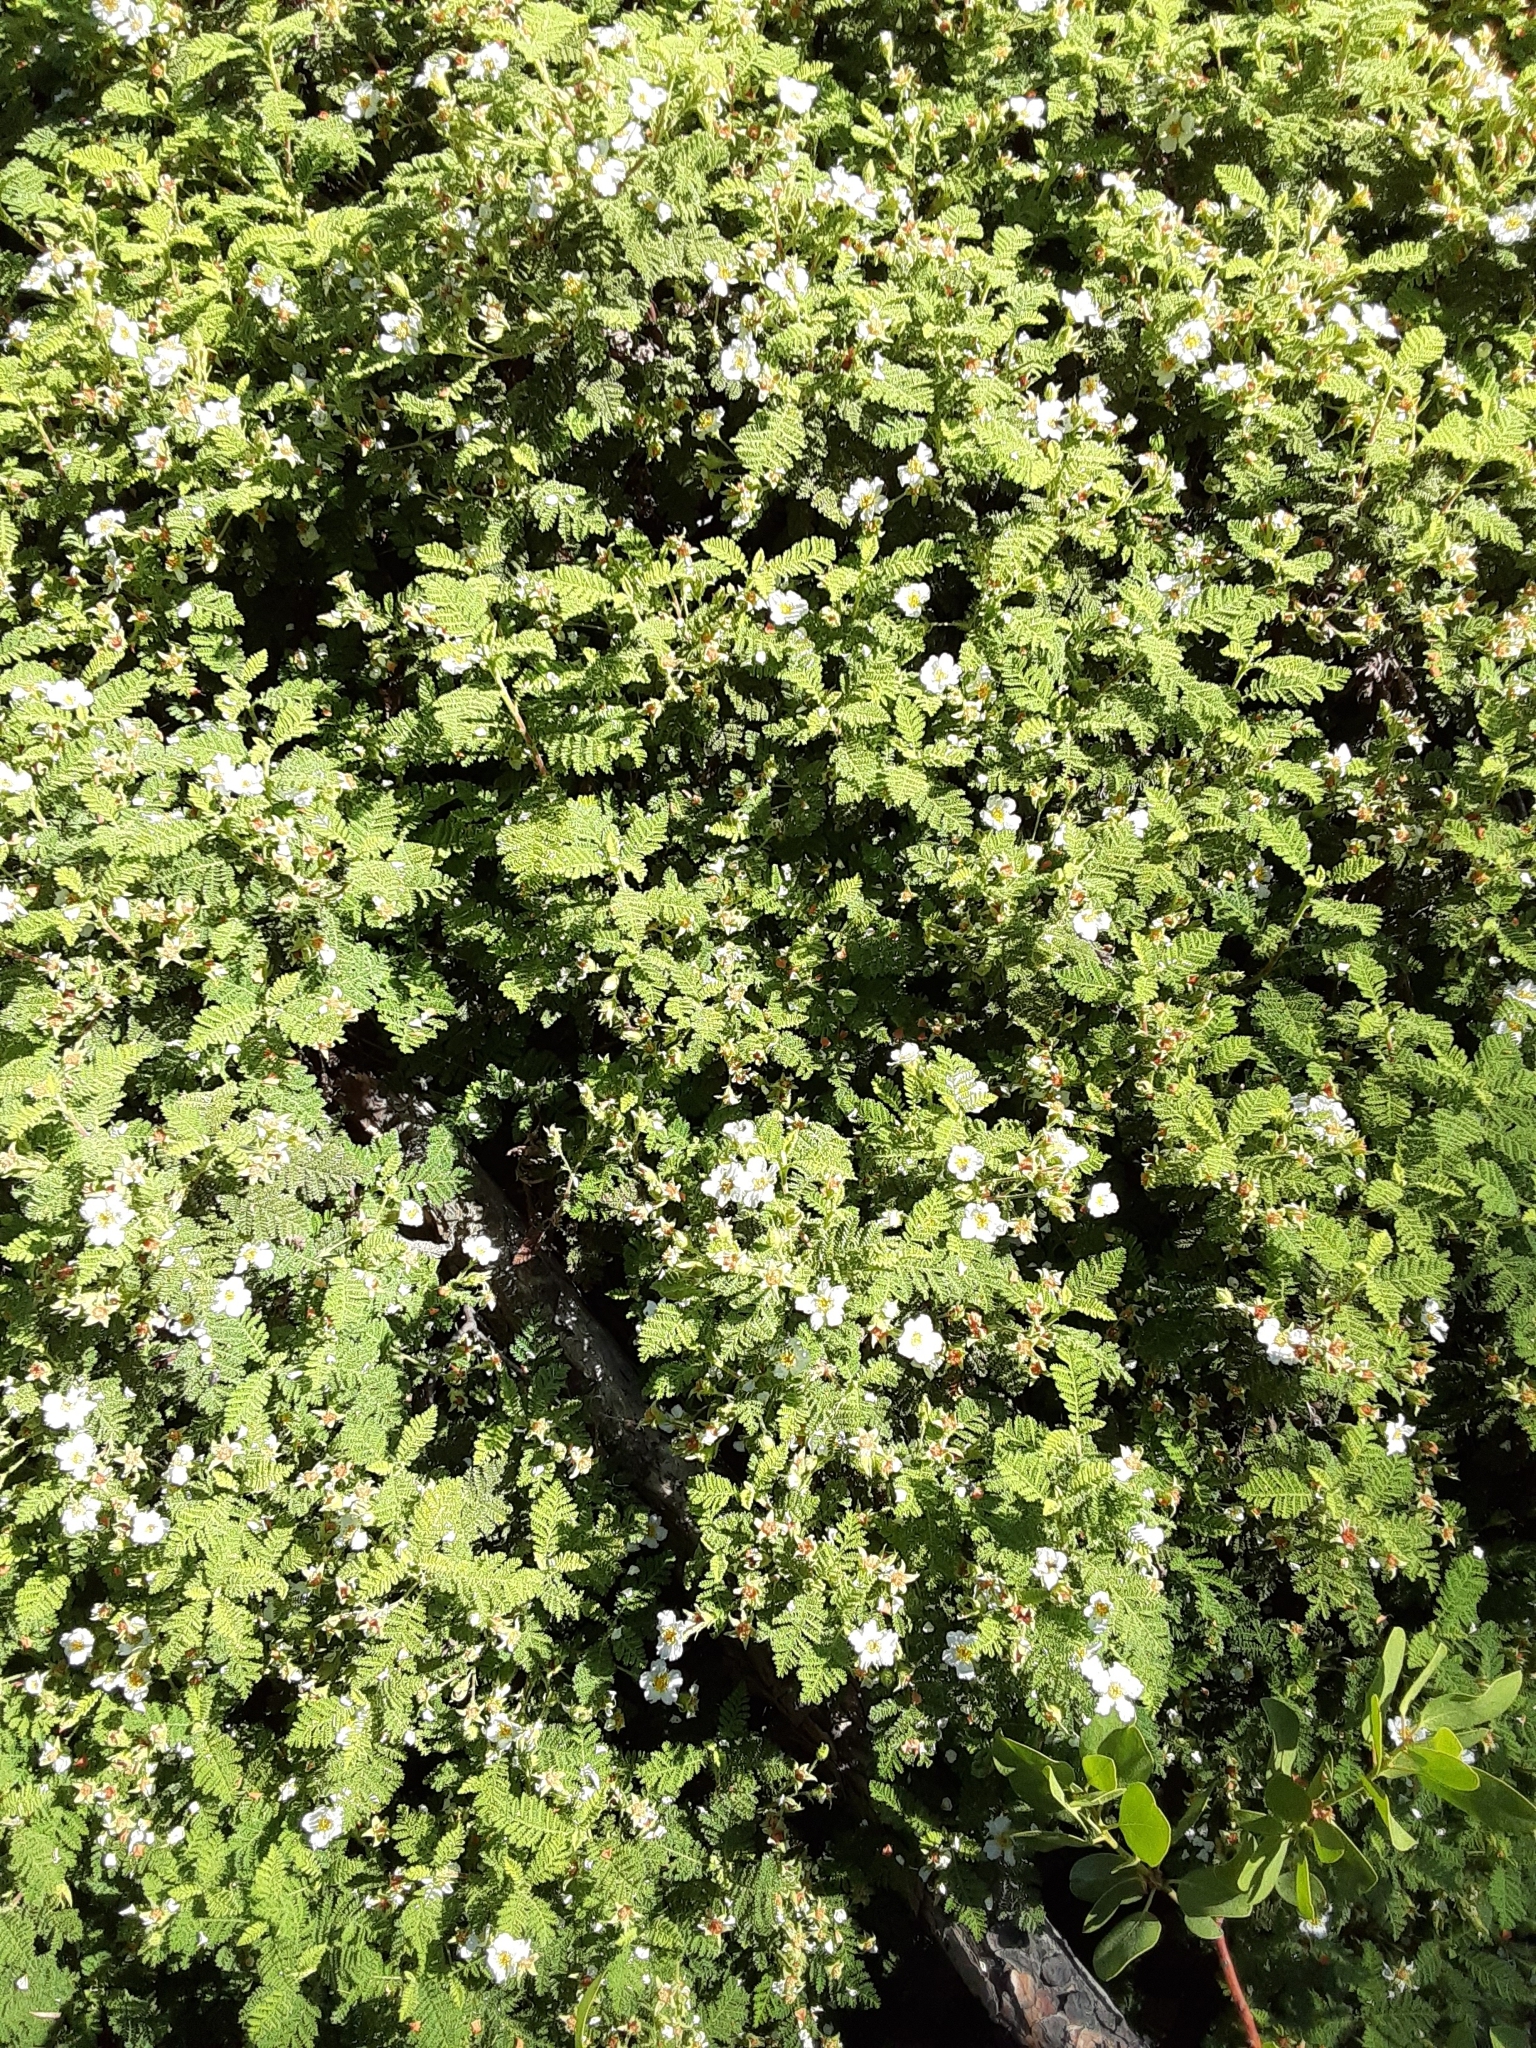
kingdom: Plantae
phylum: Tracheophyta
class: Magnoliopsida
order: Rosales
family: Rosaceae
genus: Chamaebatia
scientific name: Chamaebatia foliolosa
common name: Mountain misery
